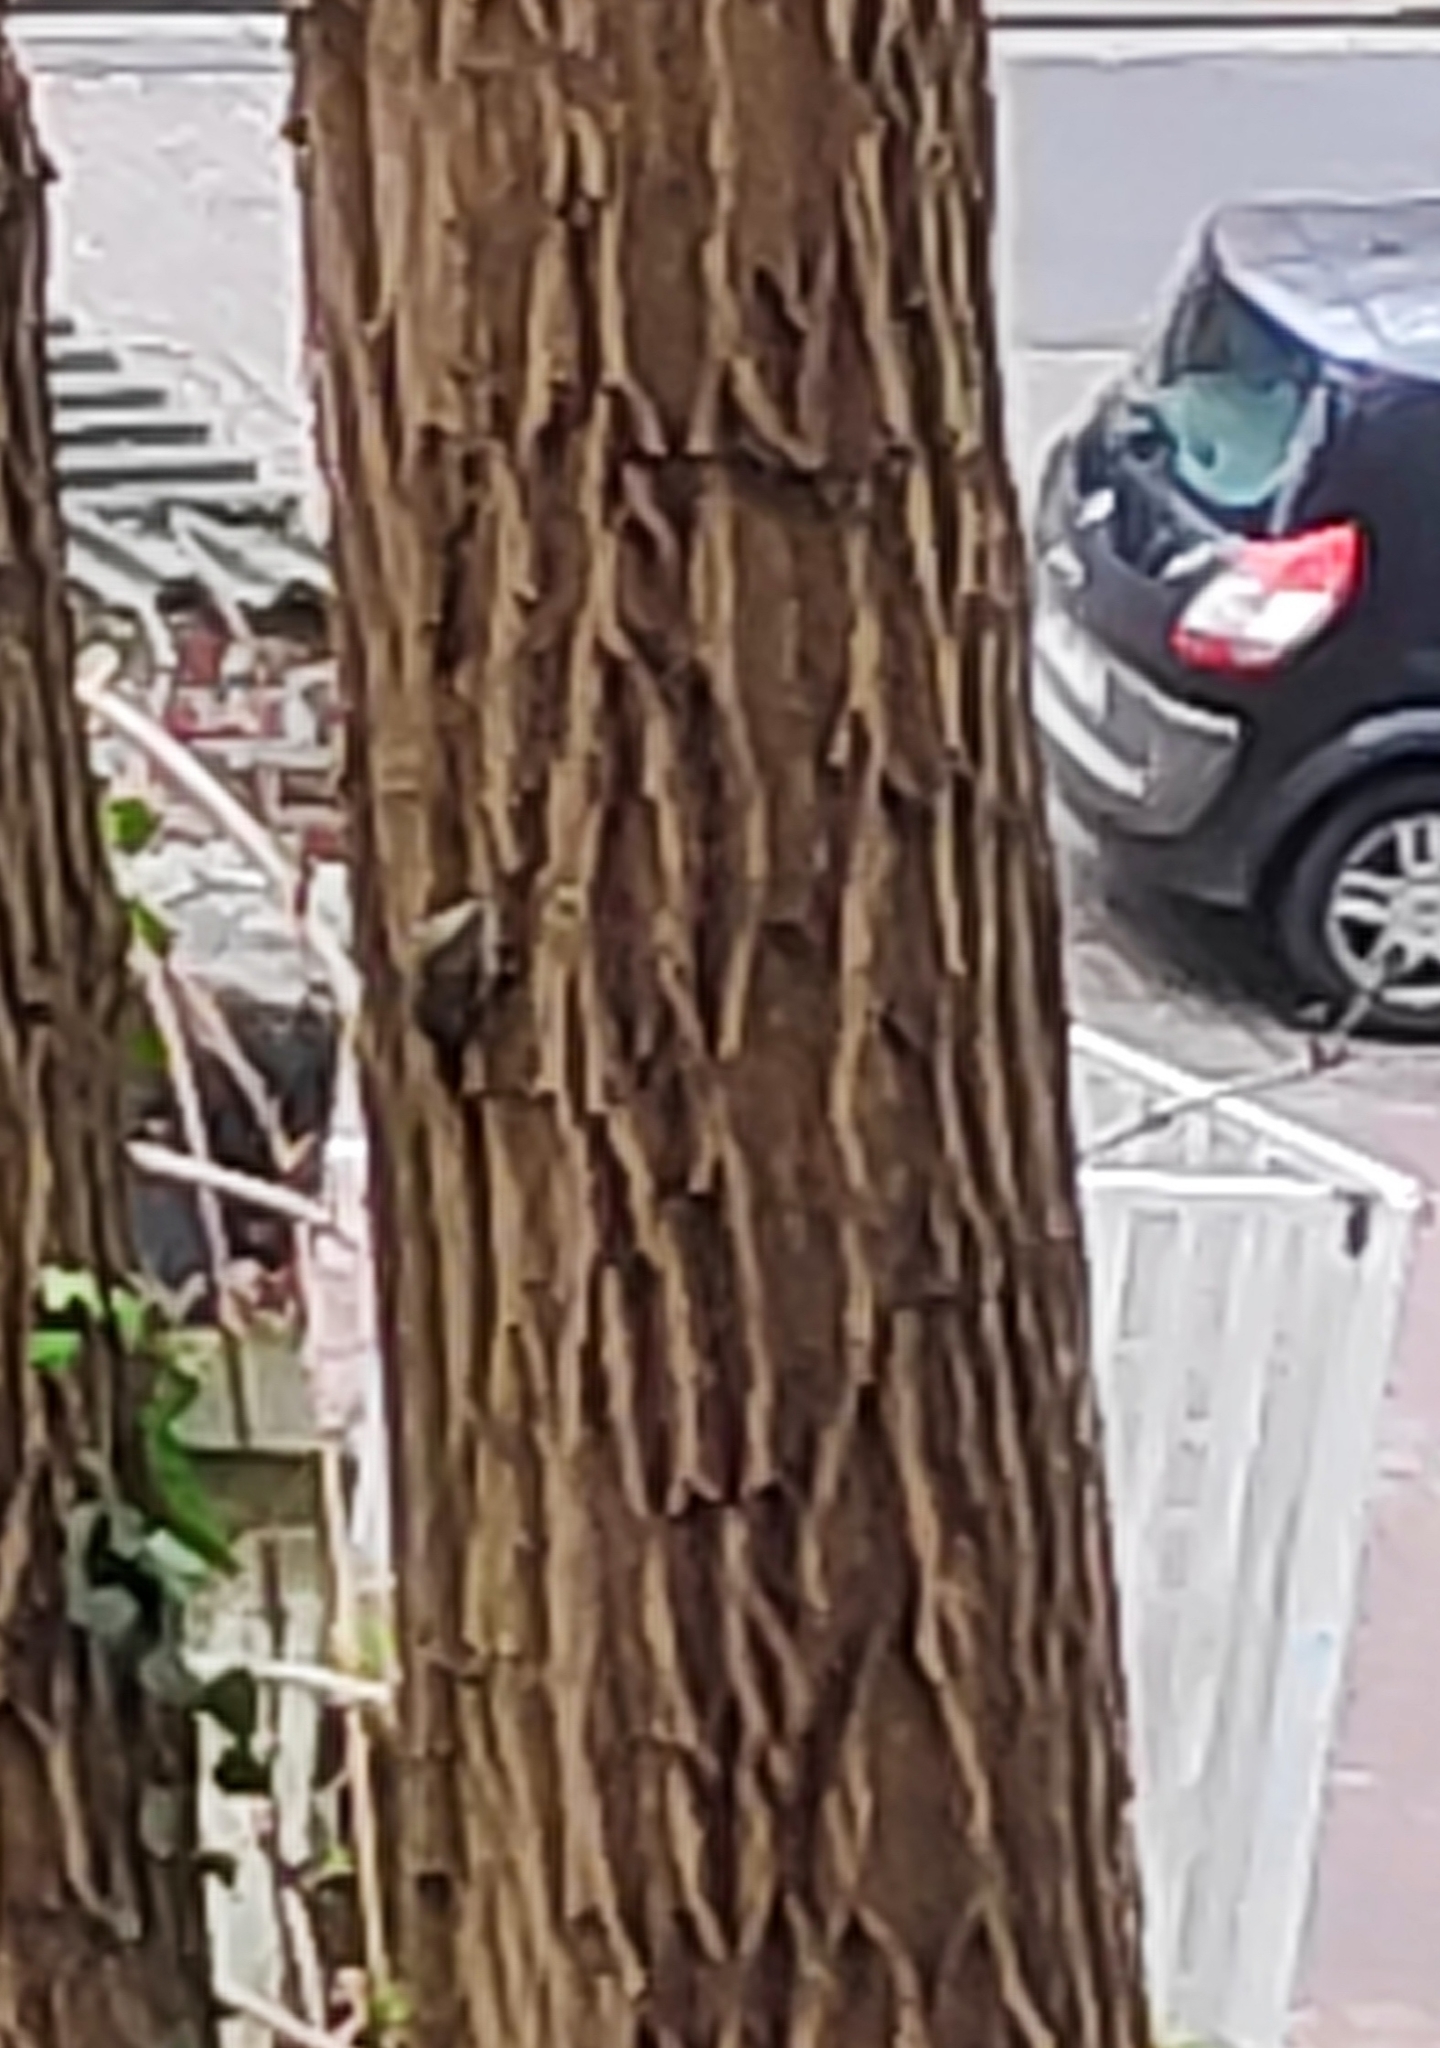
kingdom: Animalia
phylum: Chordata
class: Aves
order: Passeriformes
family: Certhiidae
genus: Certhia
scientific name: Certhia brachydactyla
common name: Short-toed treecreeper
